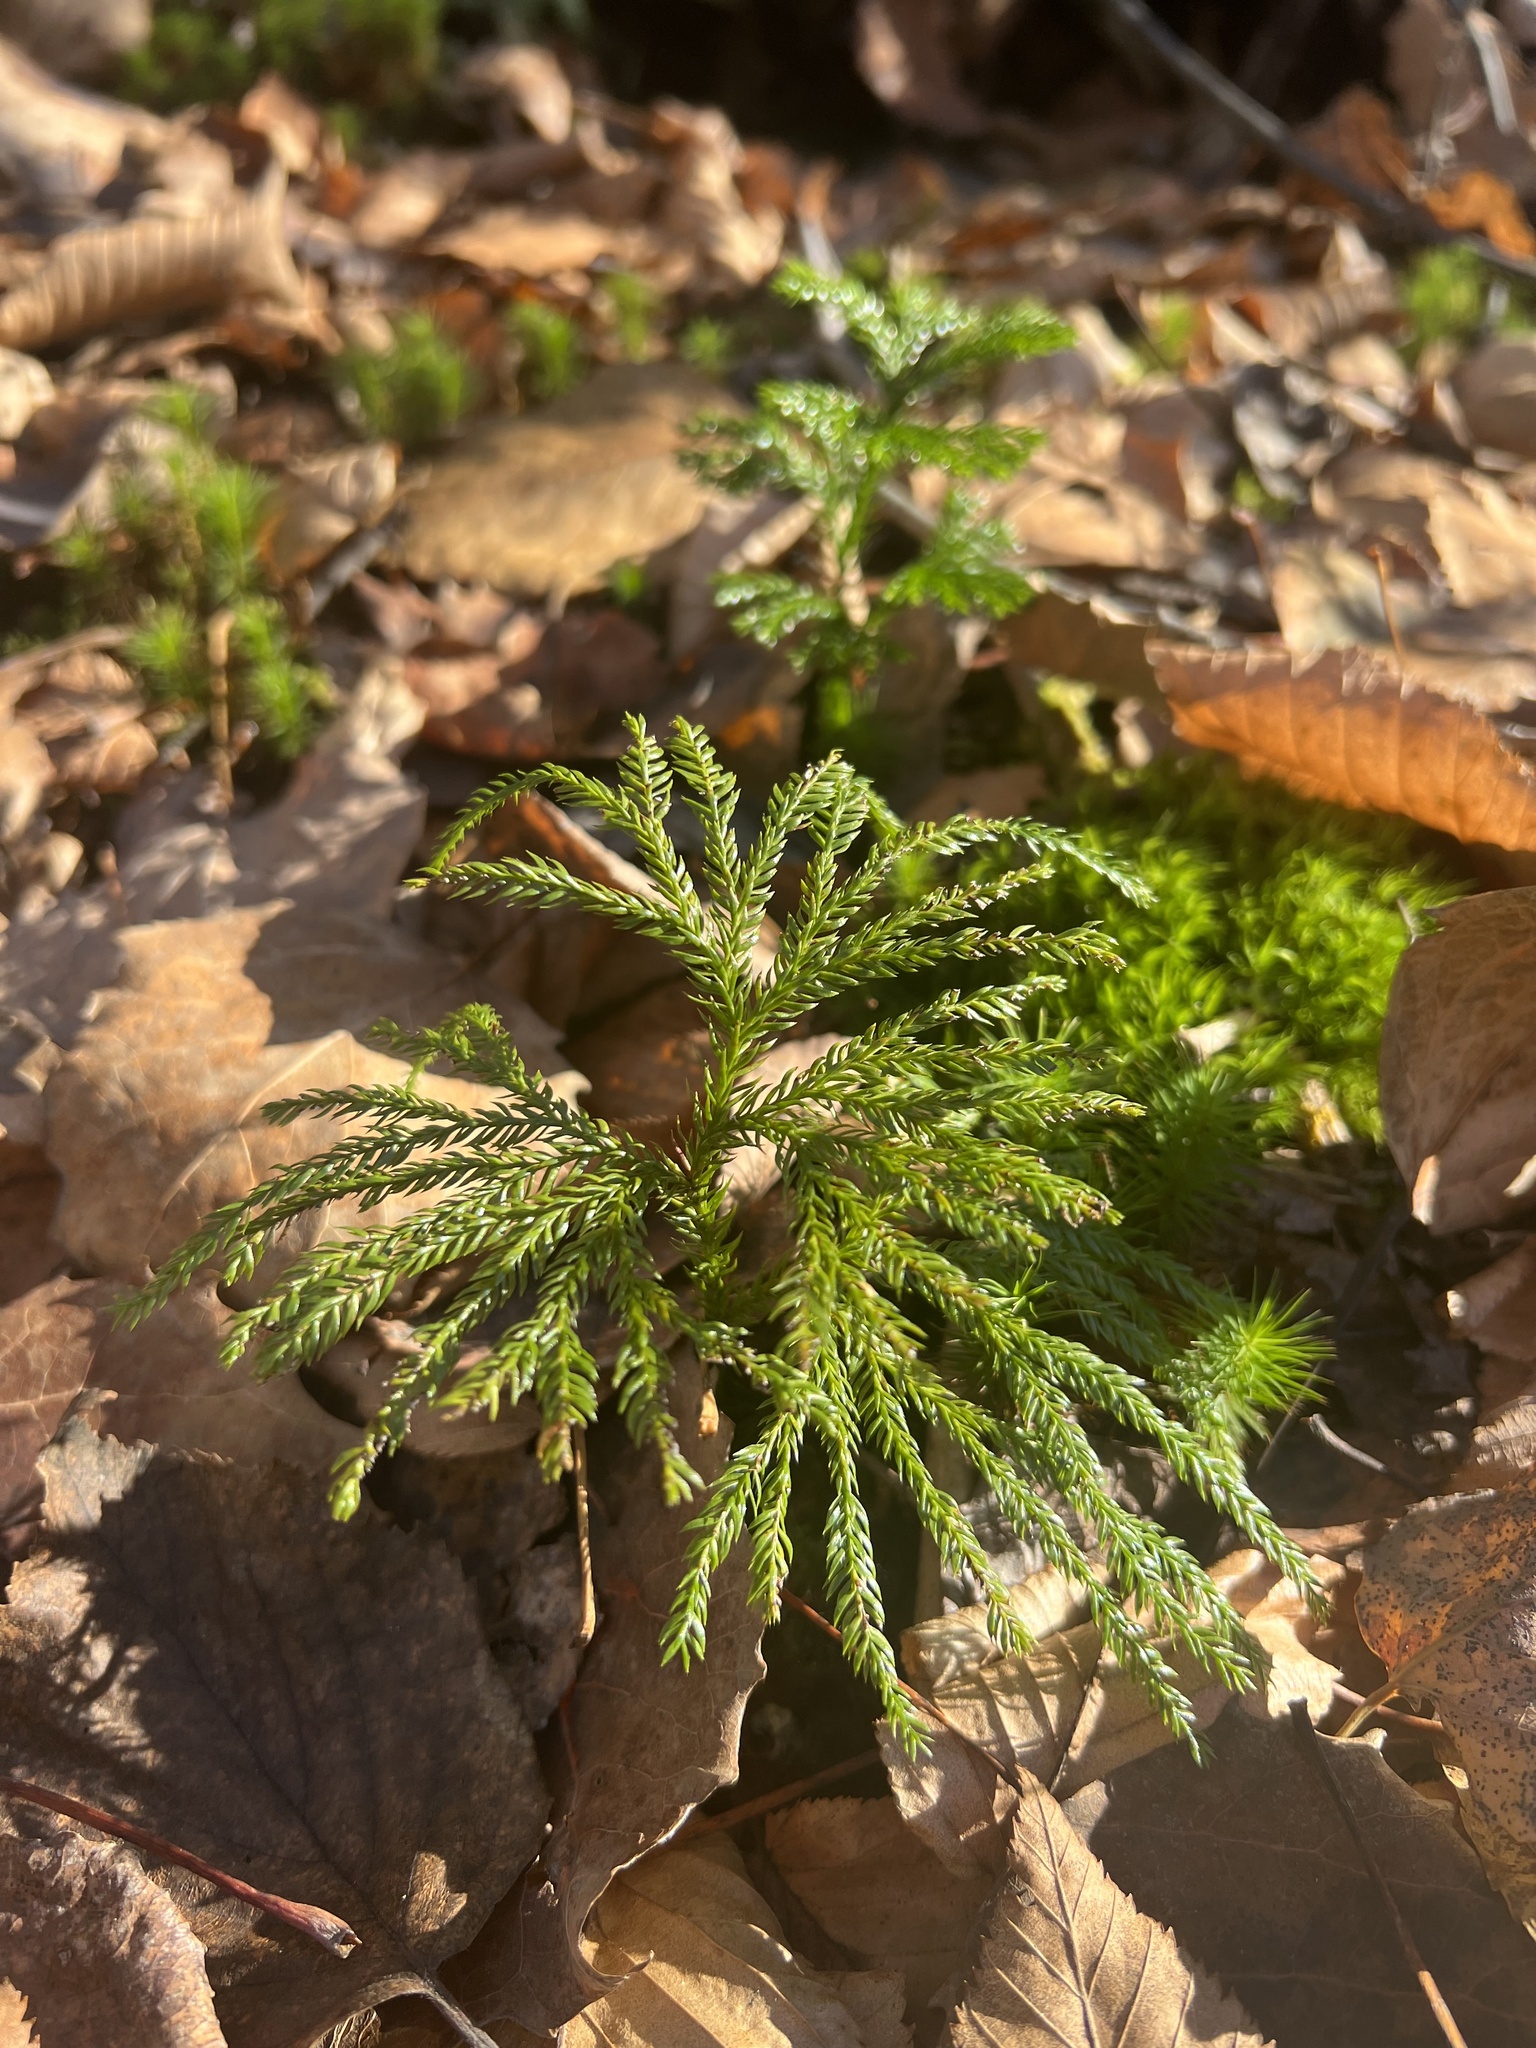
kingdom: Plantae
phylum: Tracheophyta
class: Lycopodiopsida
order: Lycopodiales
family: Lycopodiaceae
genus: Dendrolycopodium
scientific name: Dendrolycopodium obscurum
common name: Common ground-pine
